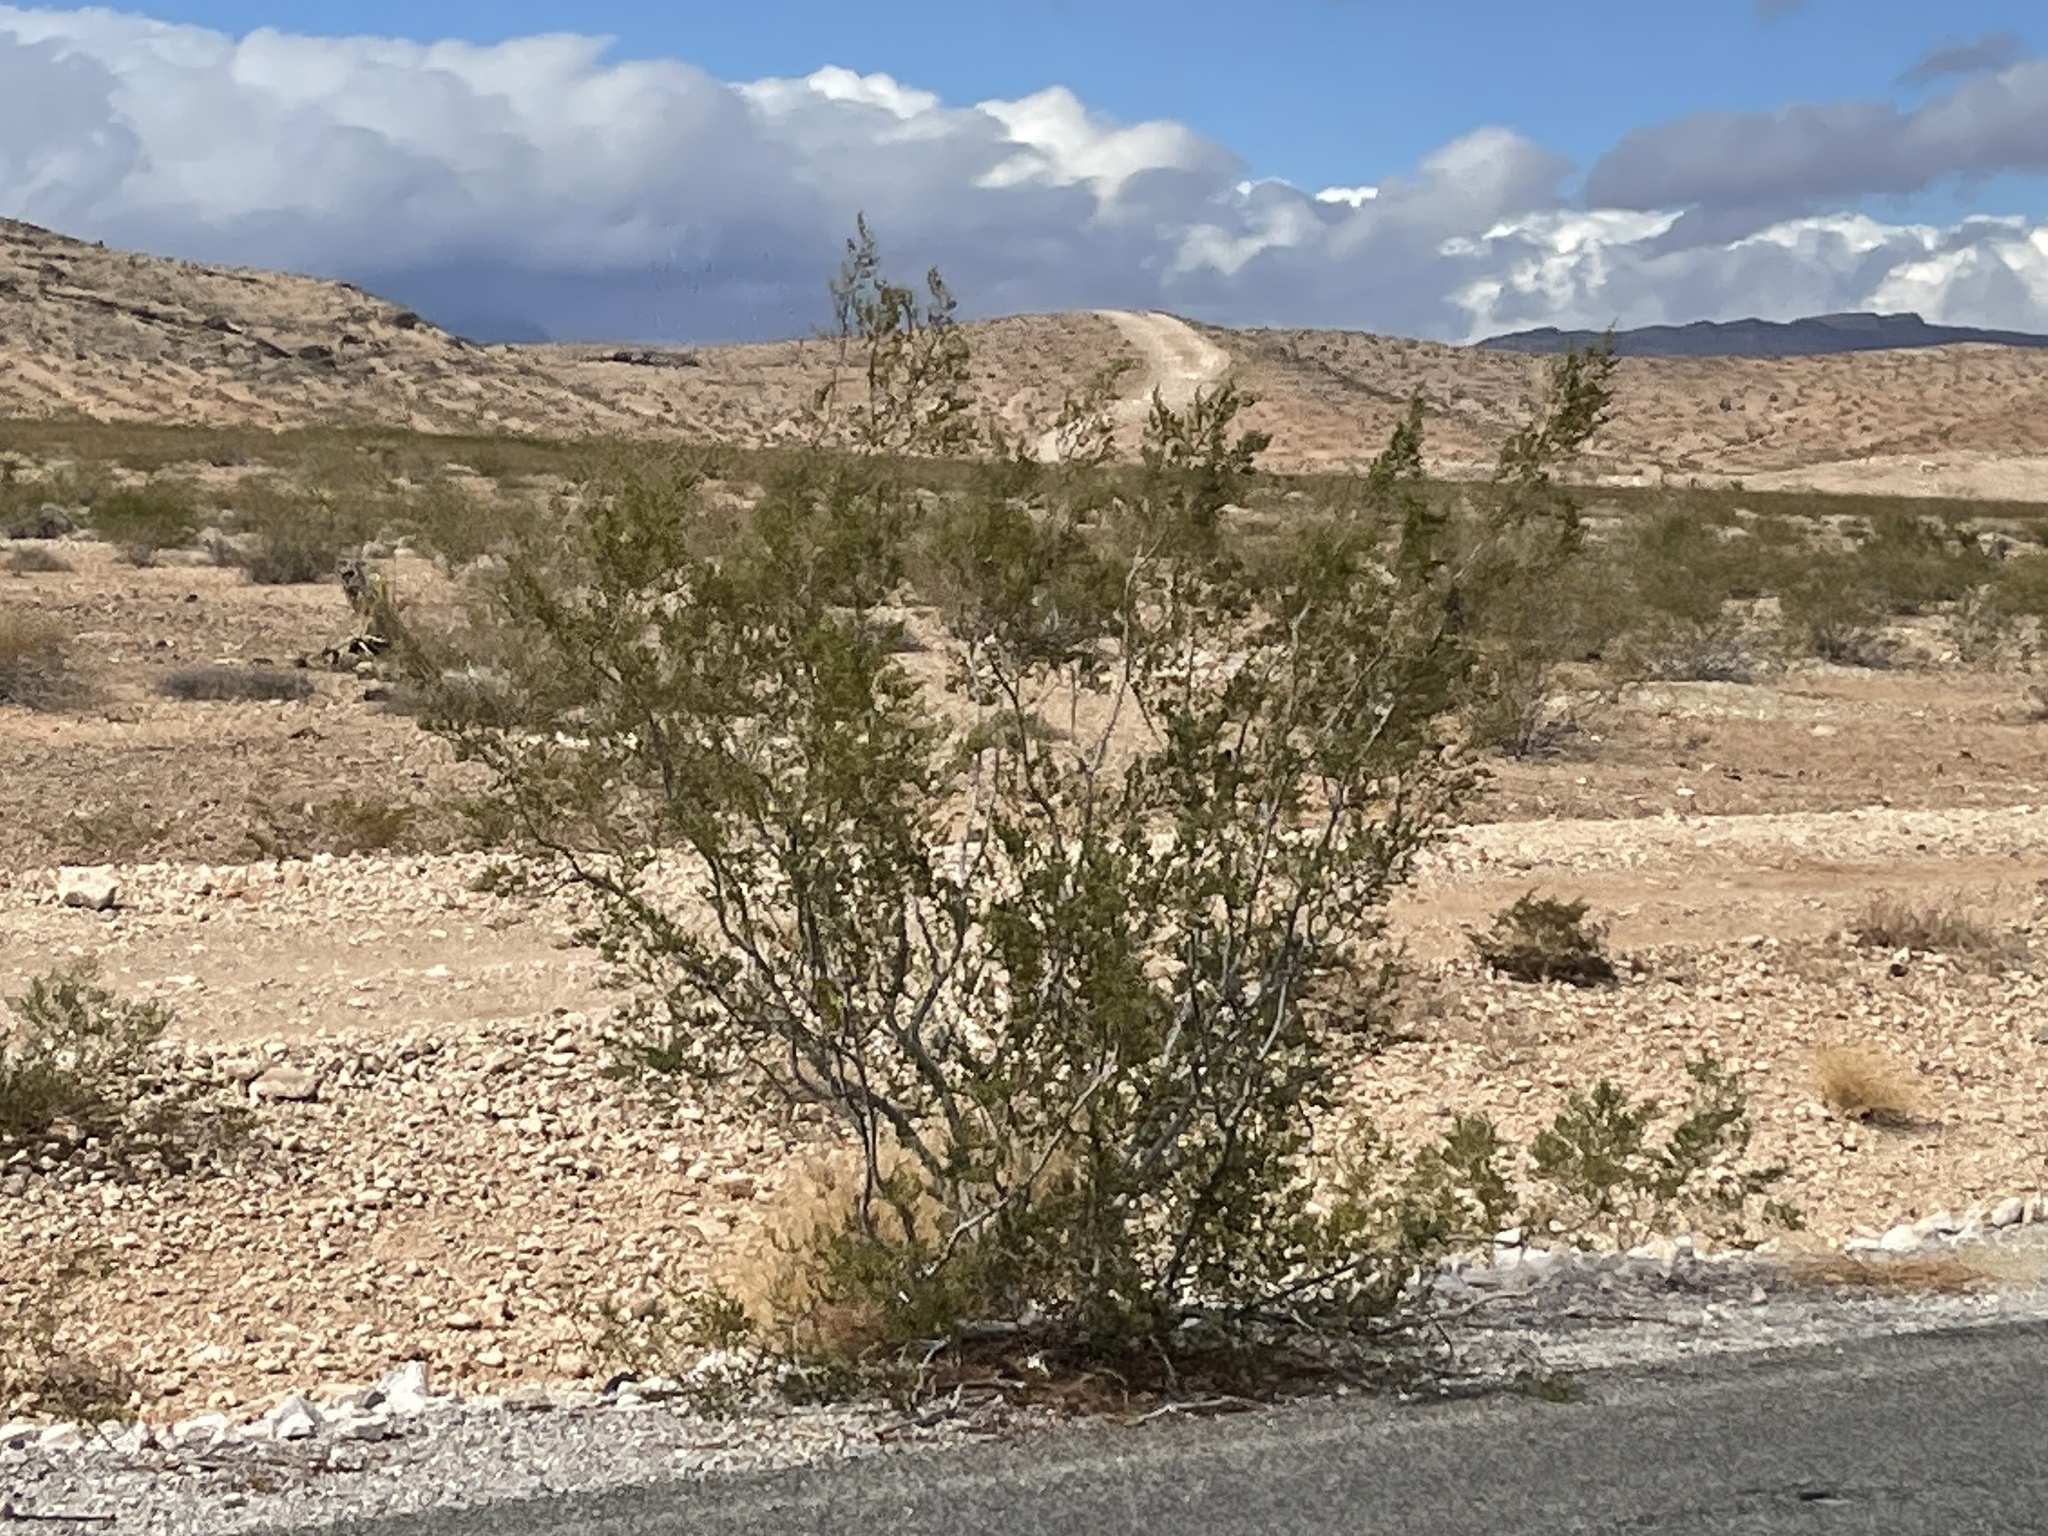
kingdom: Plantae
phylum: Tracheophyta
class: Magnoliopsida
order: Zygophyllales
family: Zygophyllaceae
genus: Larrea
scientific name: Larrea tridentata
